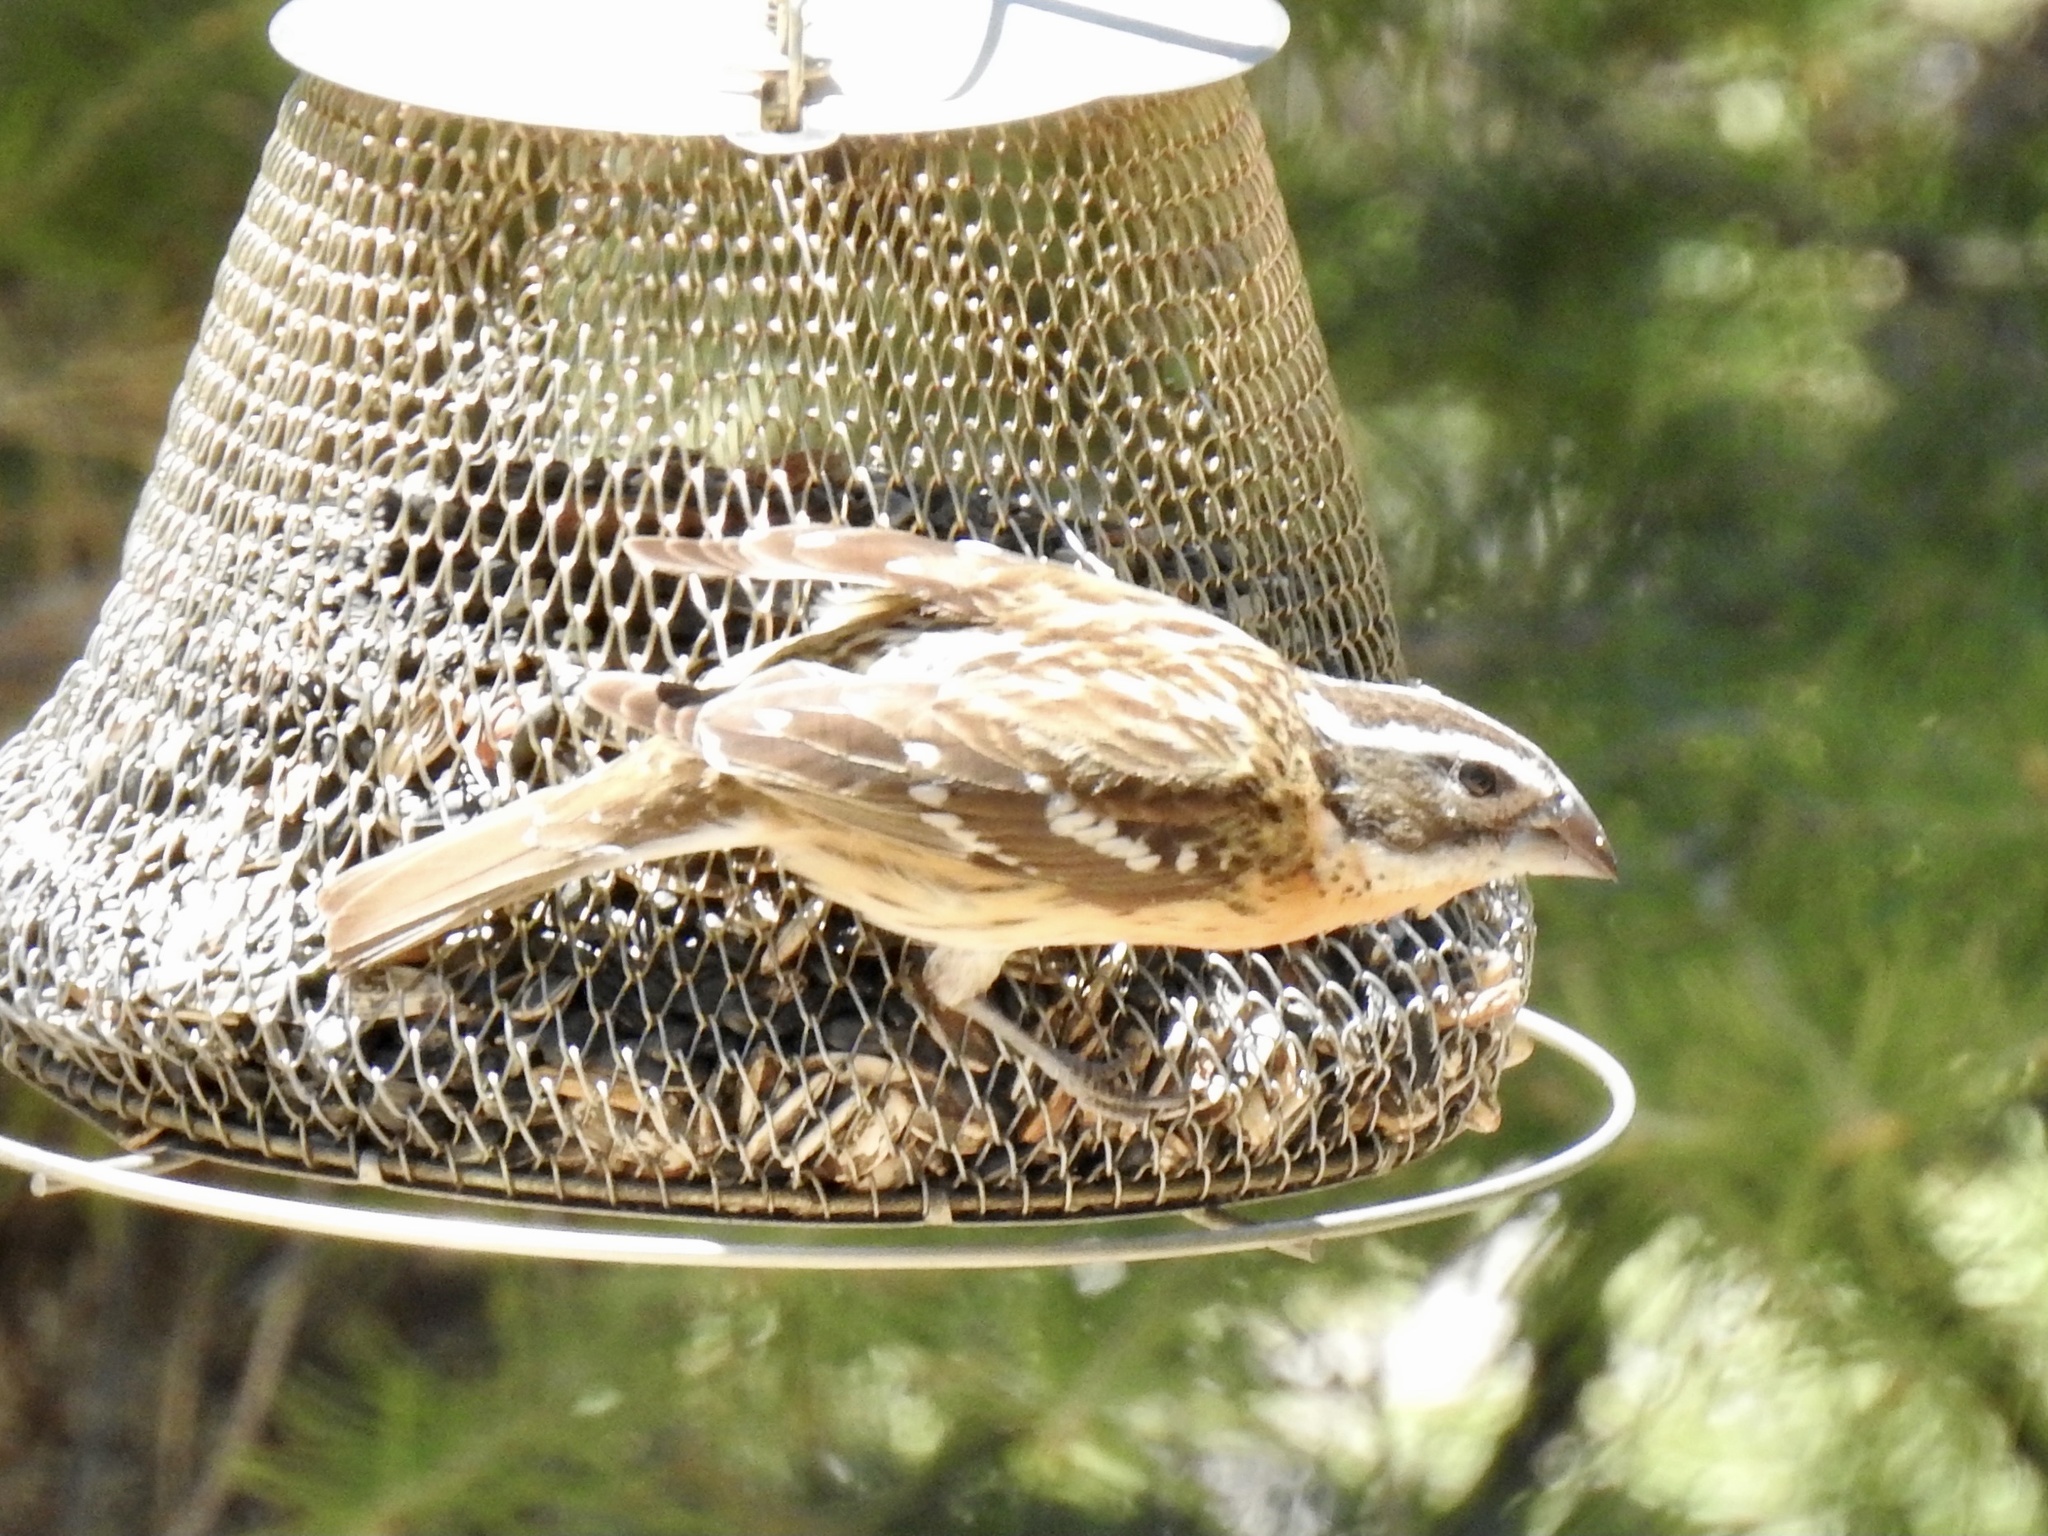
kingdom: Animalia
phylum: Chordata
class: Aves
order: Passeriformes
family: Cardinalidae
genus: Pheucticus
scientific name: Pheucticus melanocephalus
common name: Black-headed grosbeak
